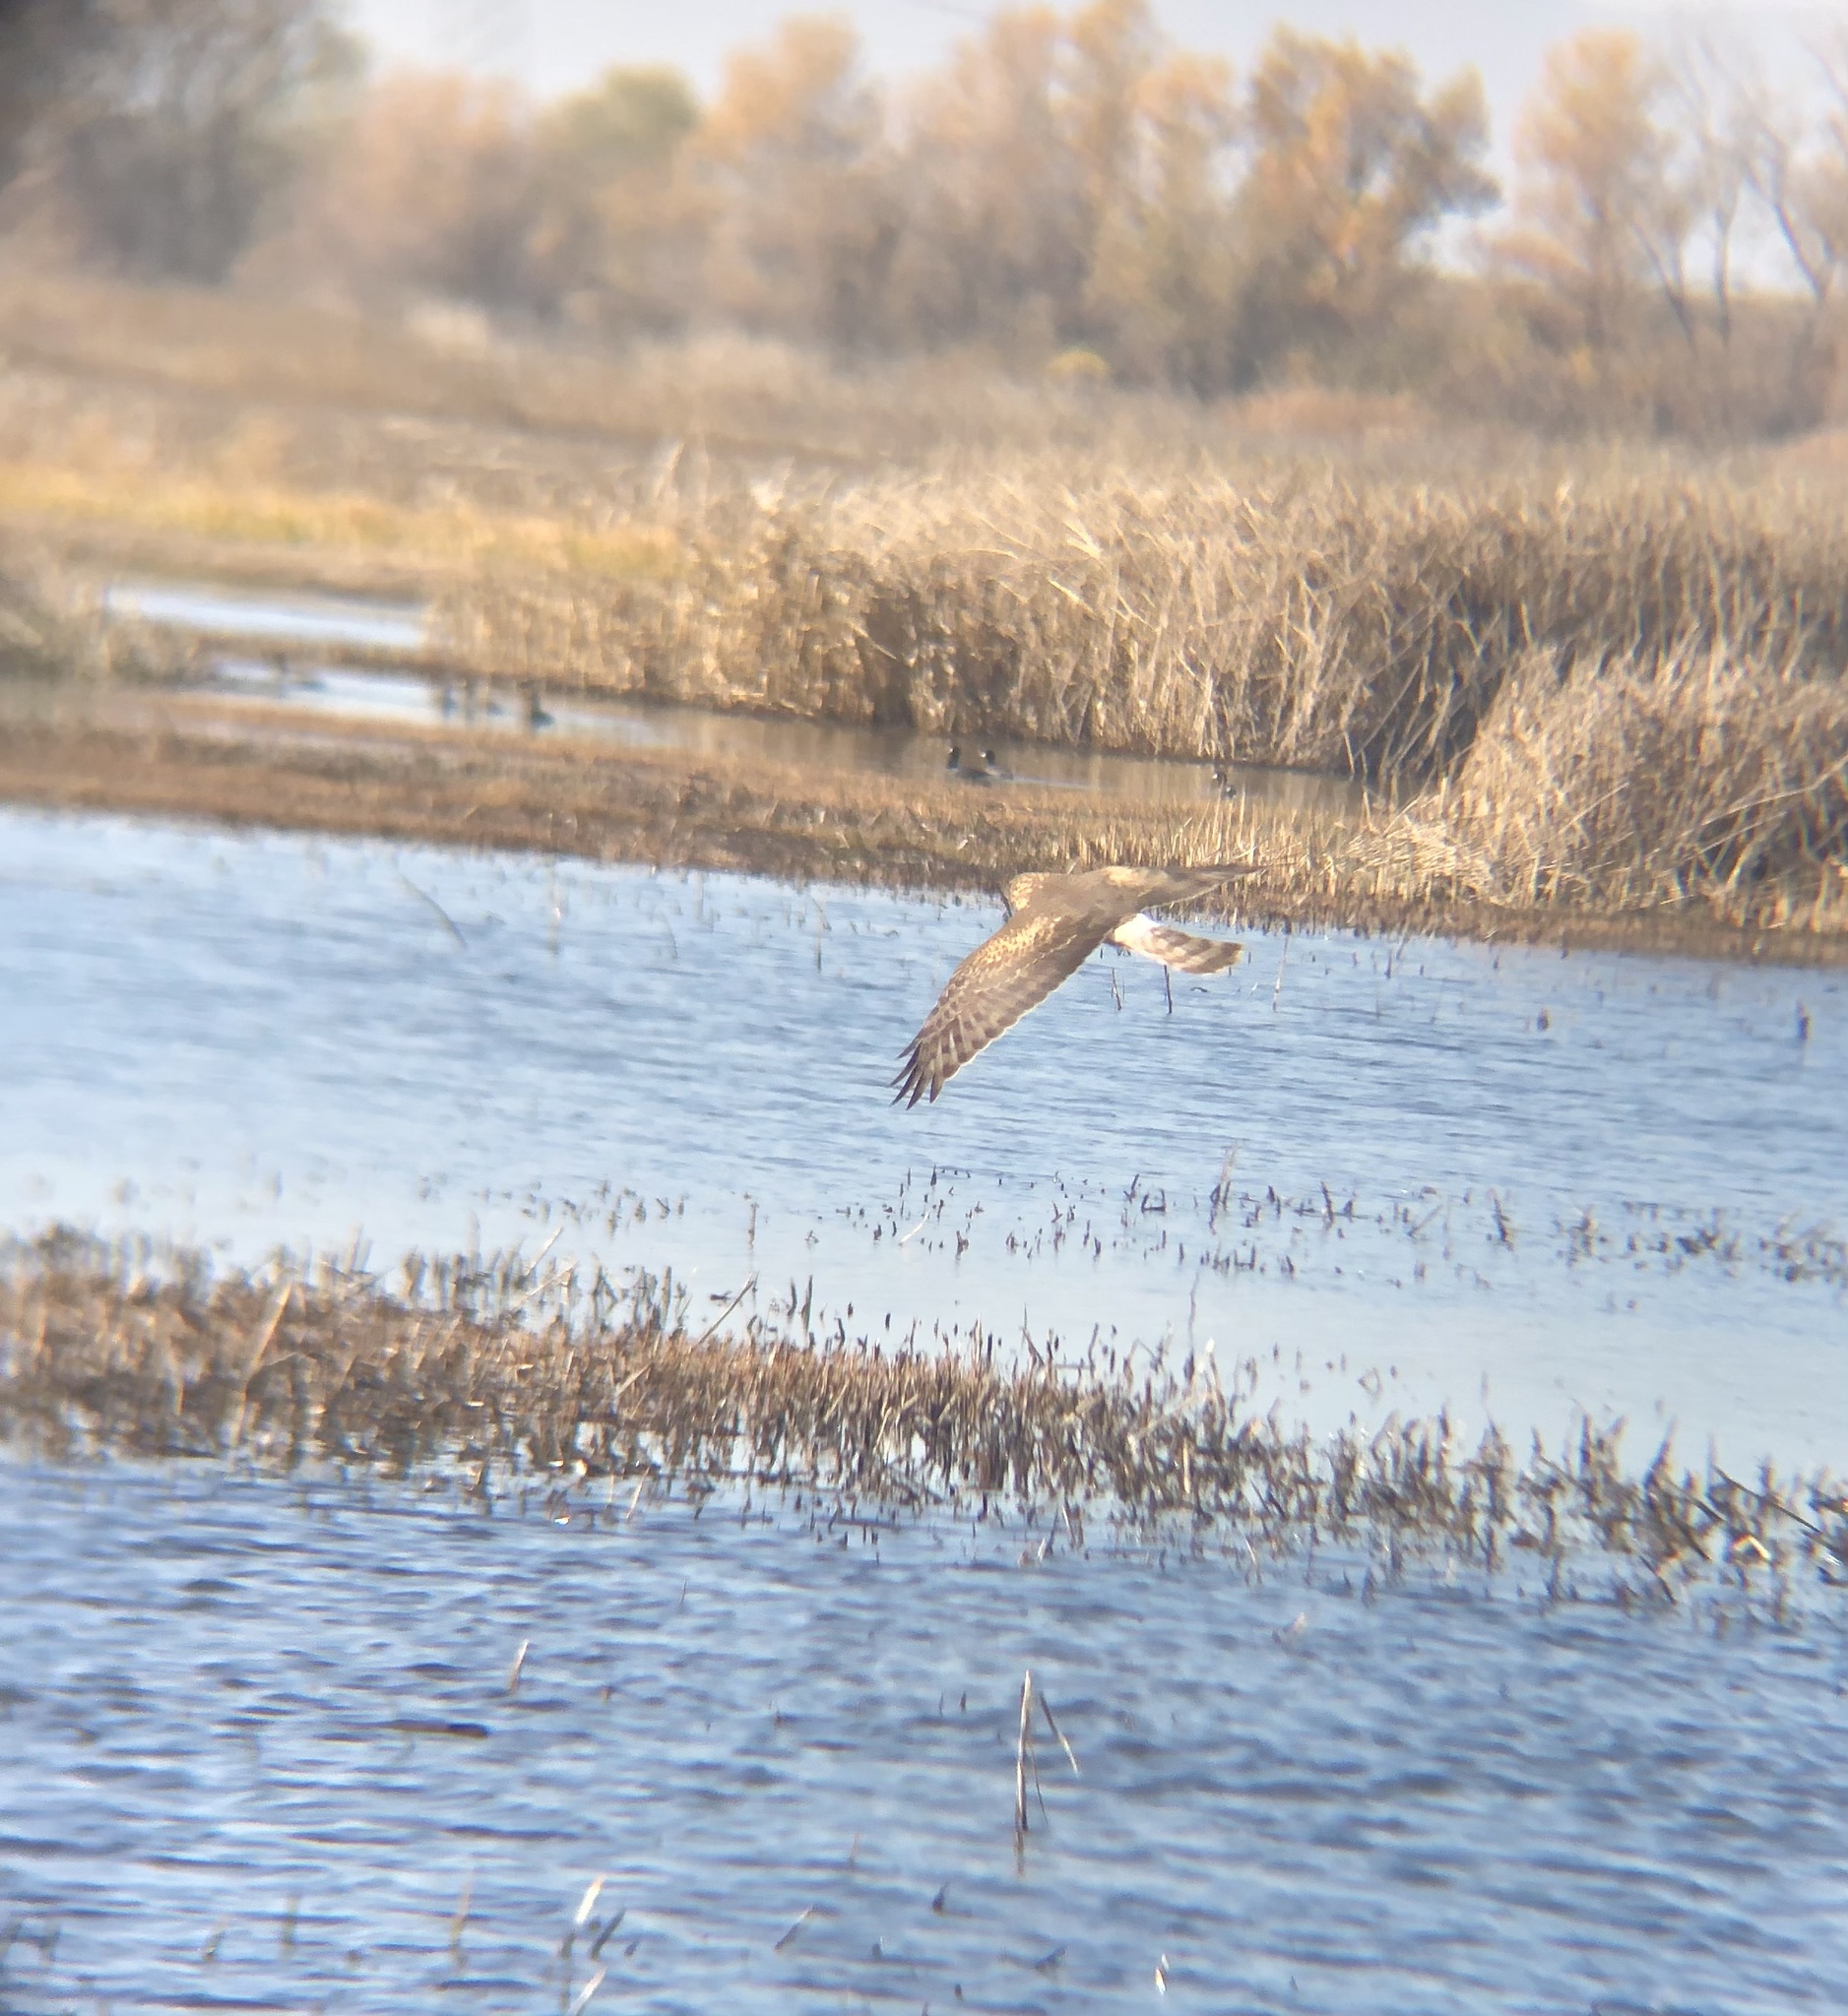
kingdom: Animalia
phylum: Chordata
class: Aves
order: Accipitriformes
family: Accipitridae
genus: Circus
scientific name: Circus cyaneus
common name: Hen harrier
